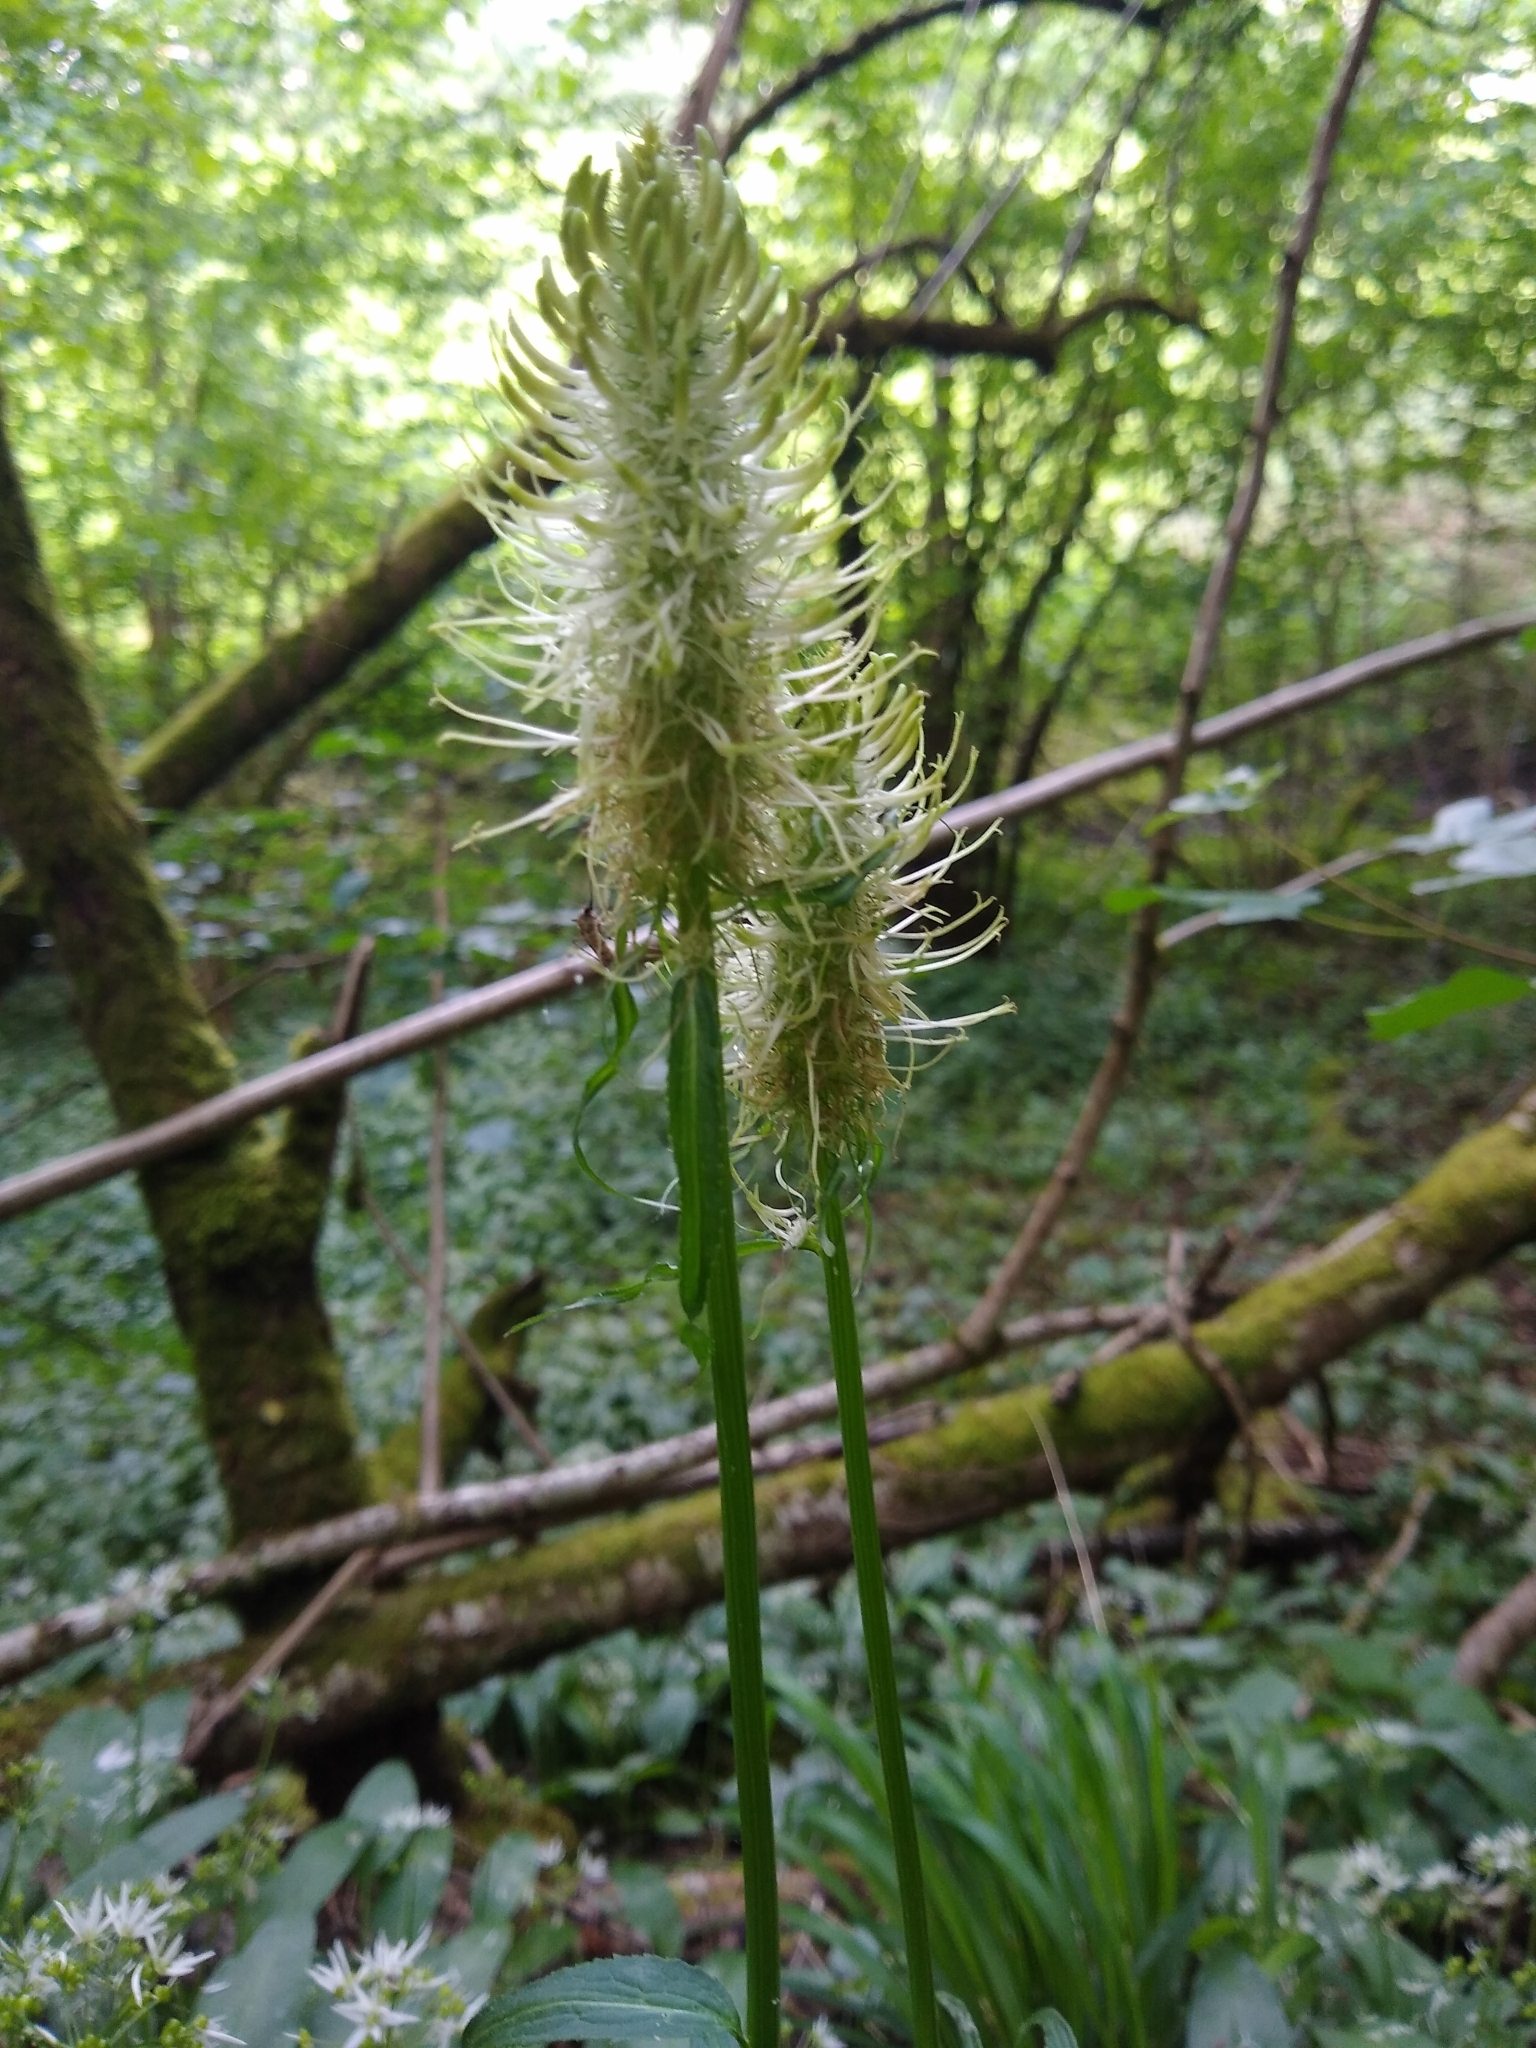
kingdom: Plantae
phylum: Tracheophyta
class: Magnoliopsida
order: Asterales
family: Campanulaceae
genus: Phyteuma
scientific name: Phyteuma spicatum
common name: Spiked rampion
